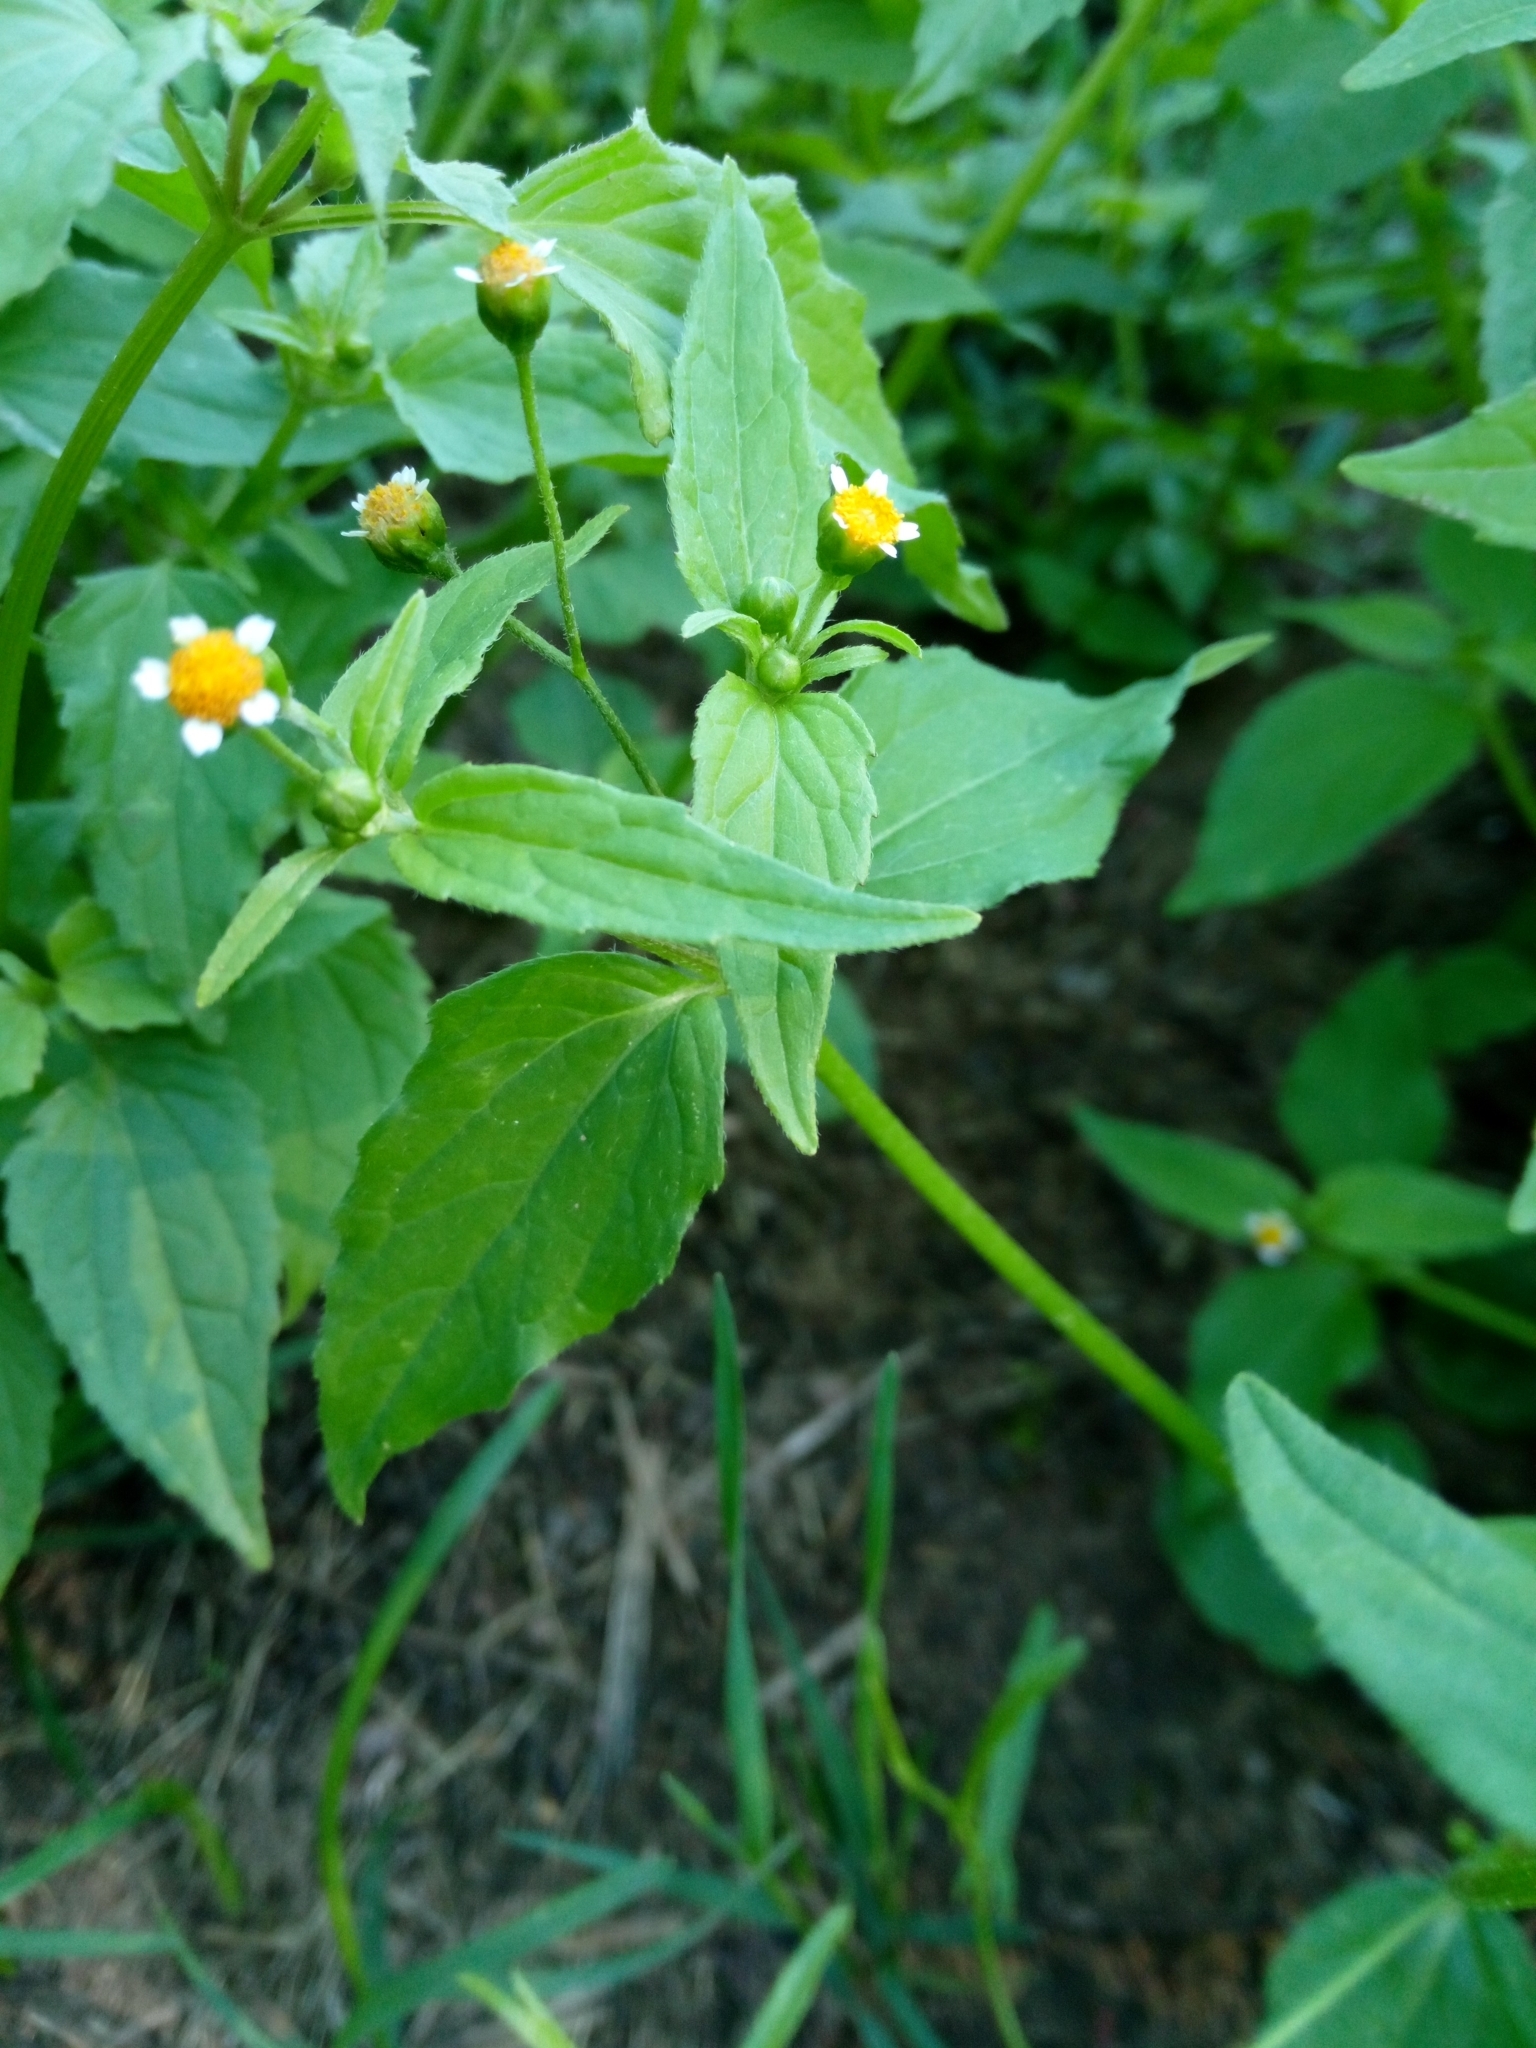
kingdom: Plantae
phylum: Tracheophyta
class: Magnoliopsida
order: Asterales
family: Asteraceae
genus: Galinsoga
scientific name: Galinsoga parviflora
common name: Gallant soldier
